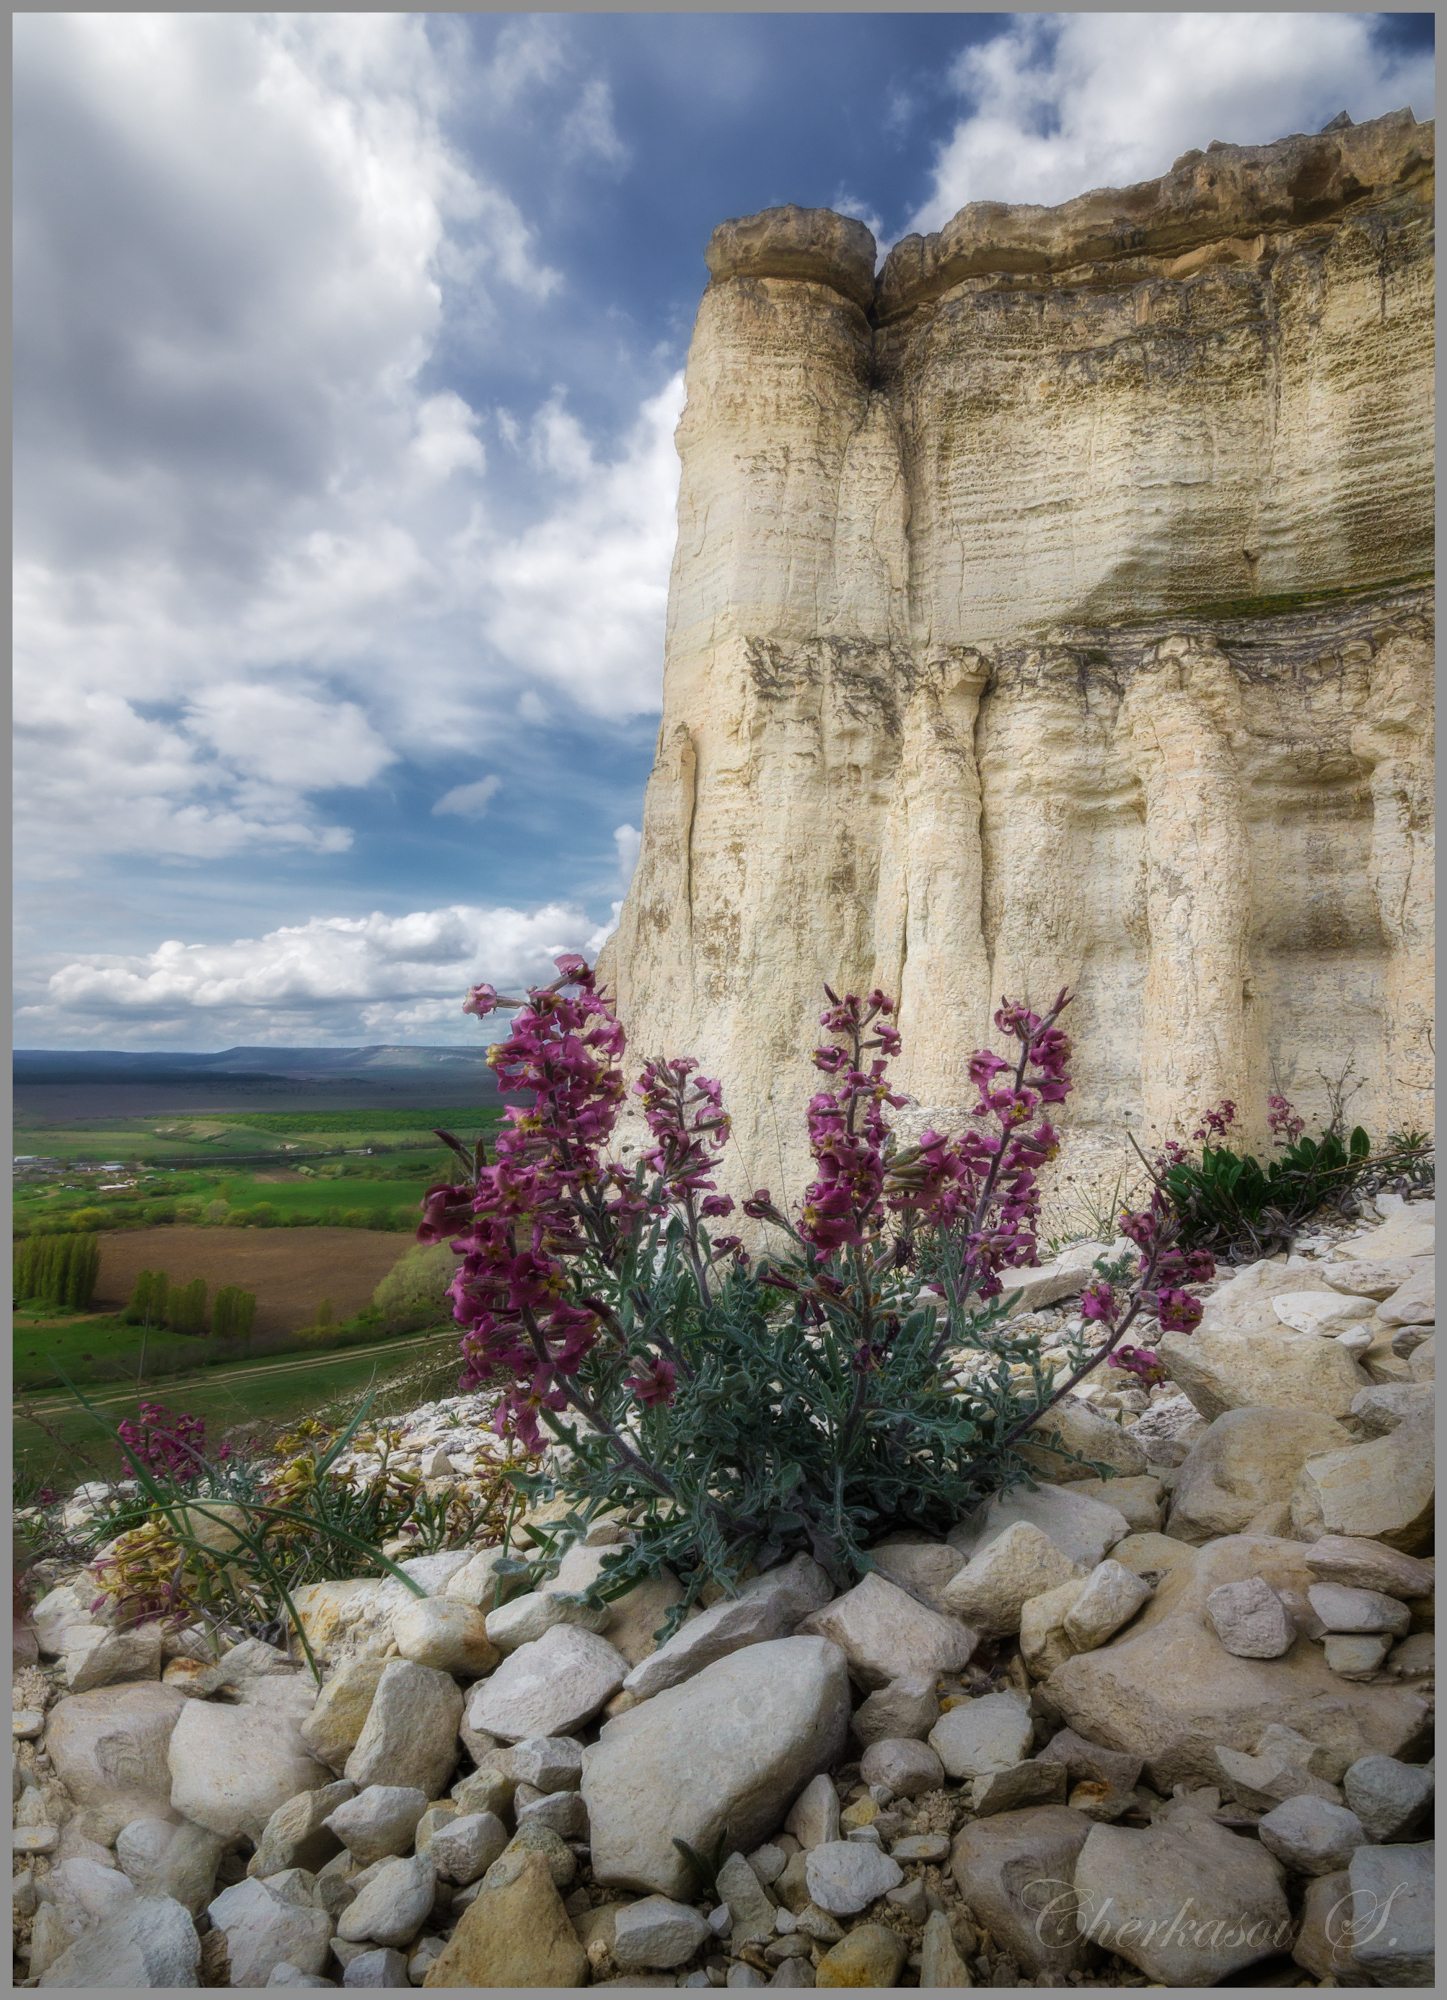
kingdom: Plantae
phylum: Tracheophyta
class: Magnoliopsida
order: Brassicales
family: Brassicaceae
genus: Matthiola
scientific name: Matthiola odoratissima
